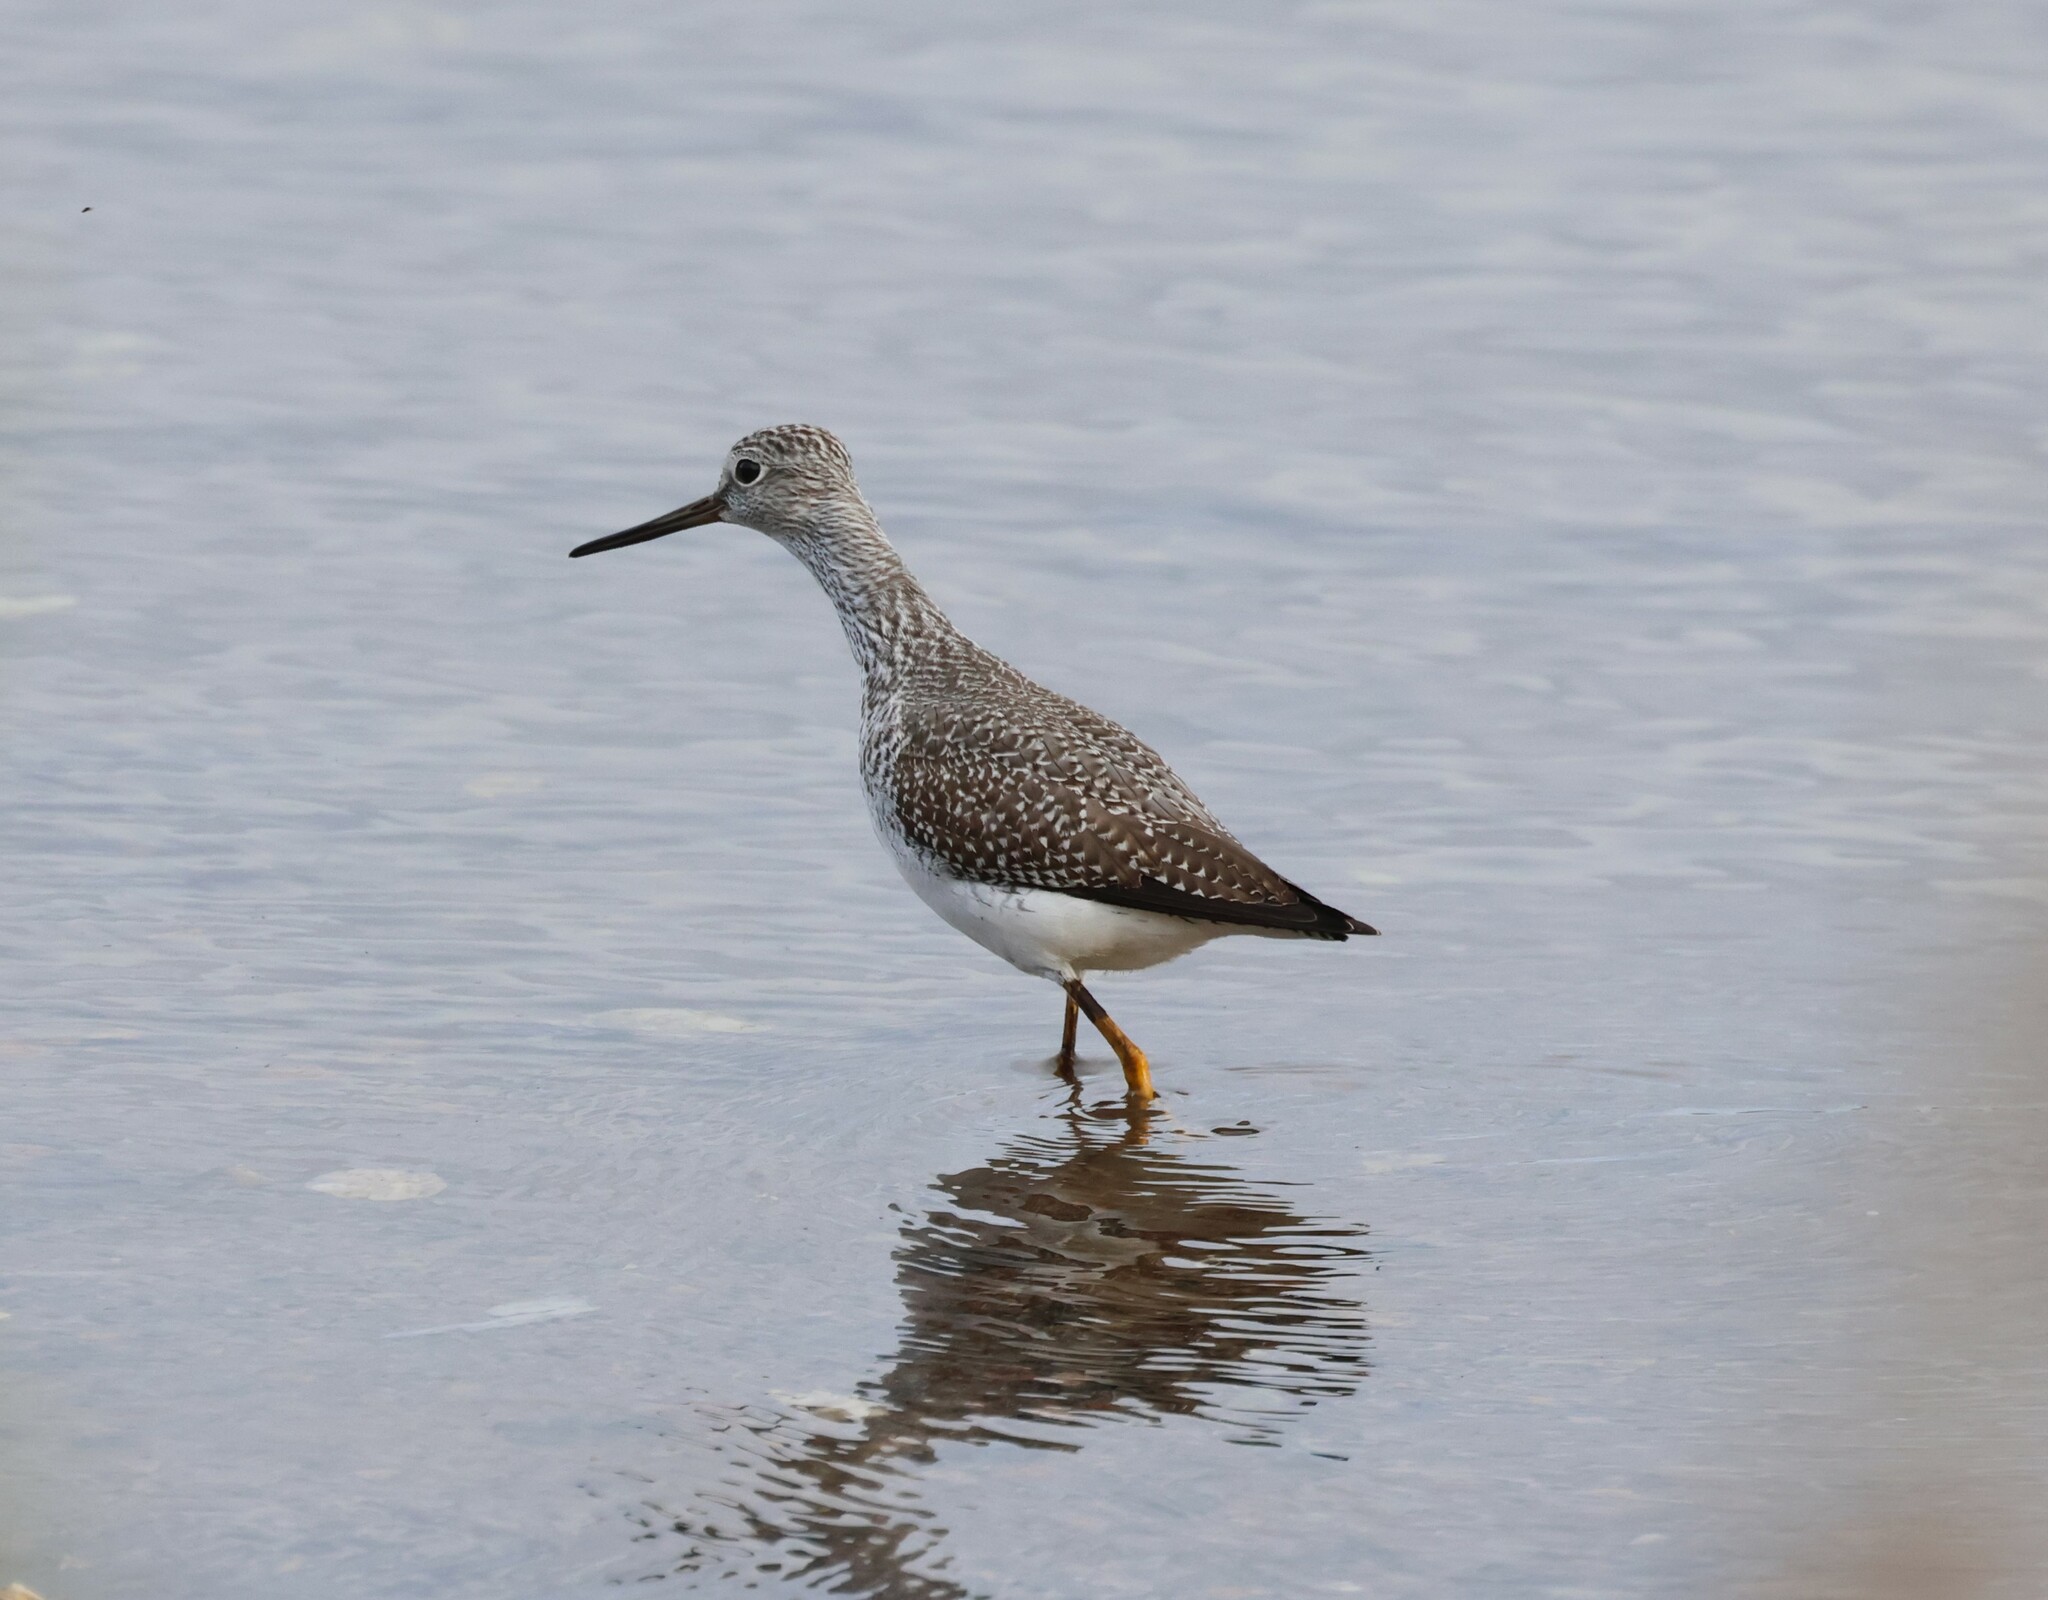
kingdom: Animalia
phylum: Chordata
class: Aves
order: Charadriiformes
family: Scolopacidae
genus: Tringa
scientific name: Tringa melanoleuca
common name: Greater yellowlegs
